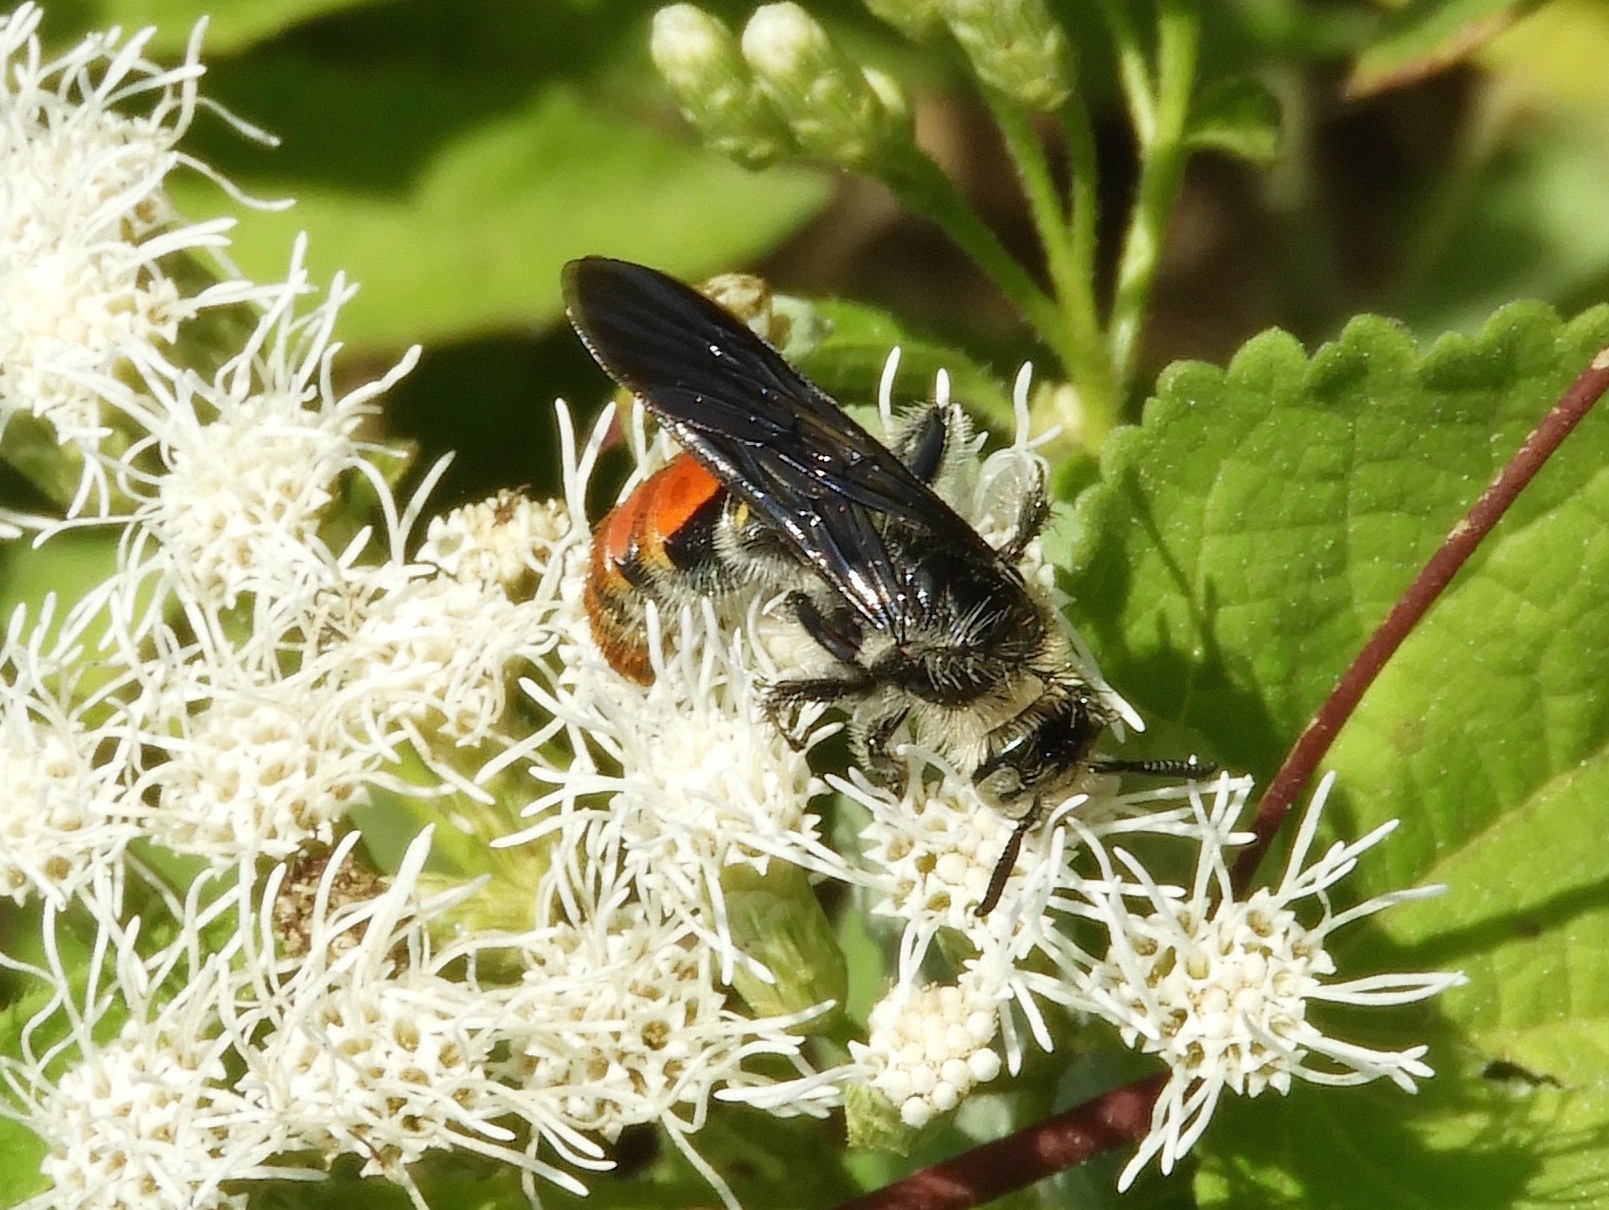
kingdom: Animalia
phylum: Arthropoda
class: Insecta
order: Hymenoptera
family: Scoliidae
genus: Dielis
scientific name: Dielis tolteca
